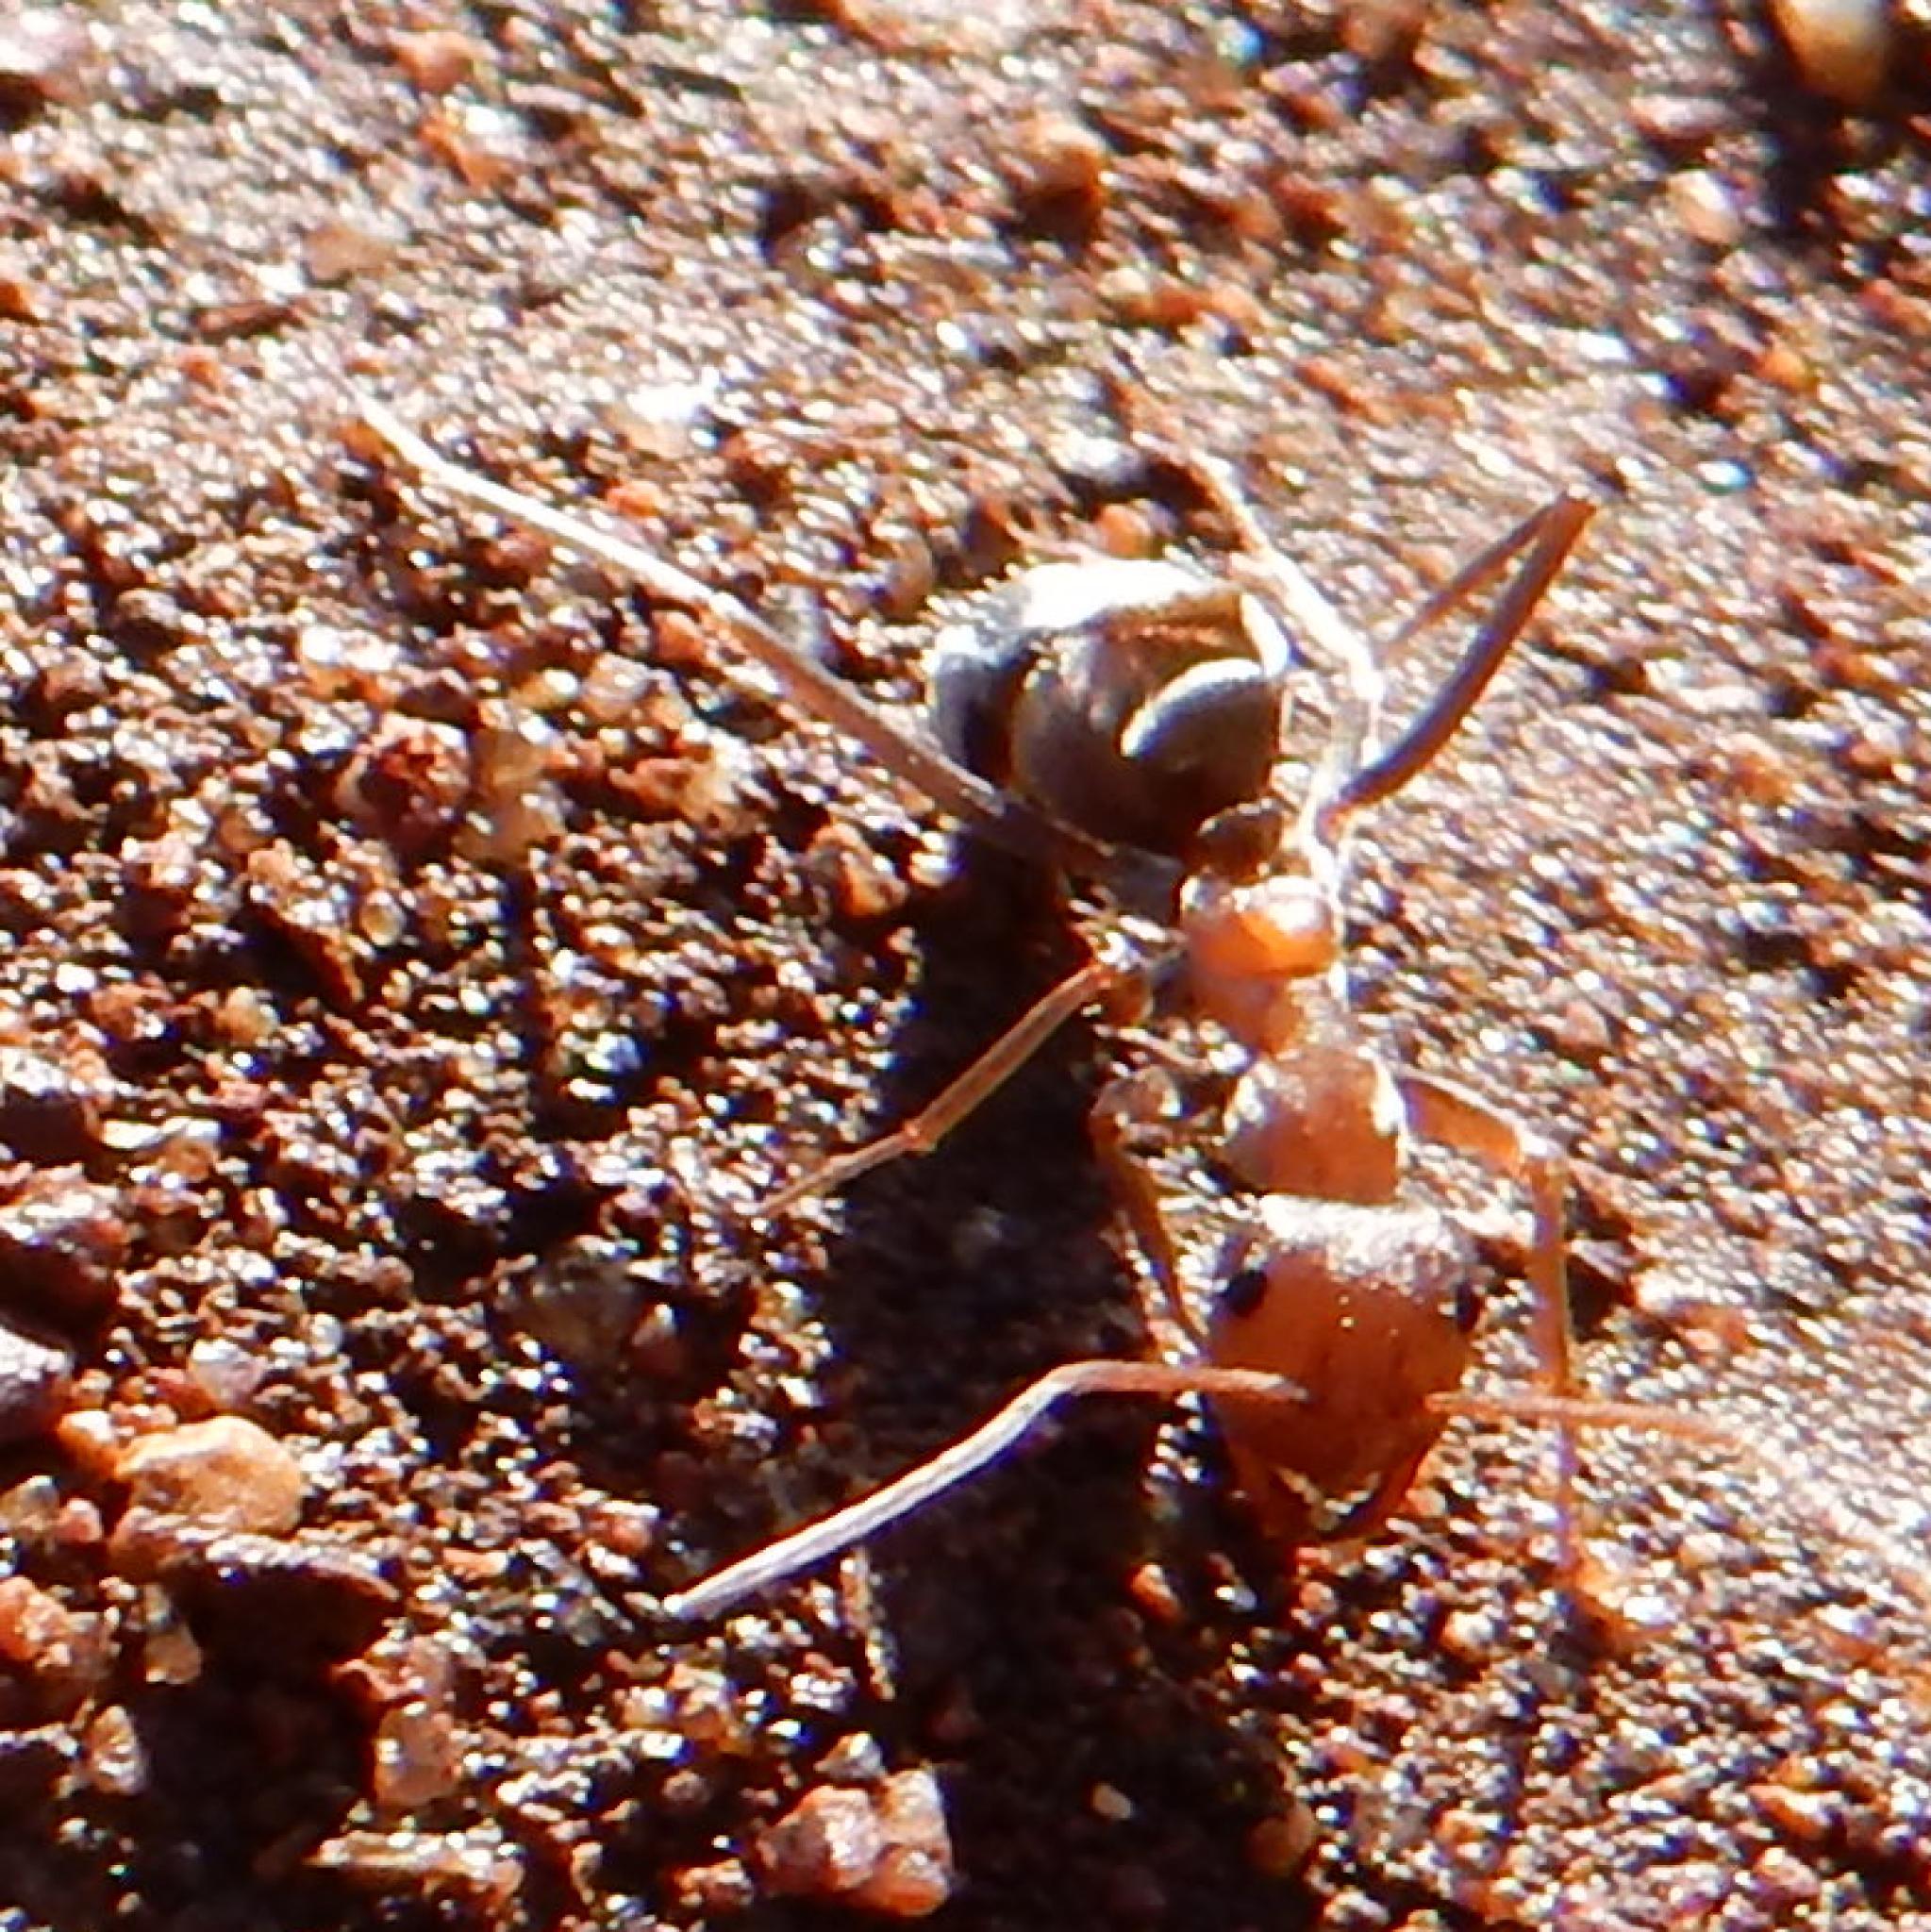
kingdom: Animalia
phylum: Arthropoda
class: Insecta
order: Hymenoptera
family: Formicidae
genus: Anoplolepis
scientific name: Anoplolepis custodiens
